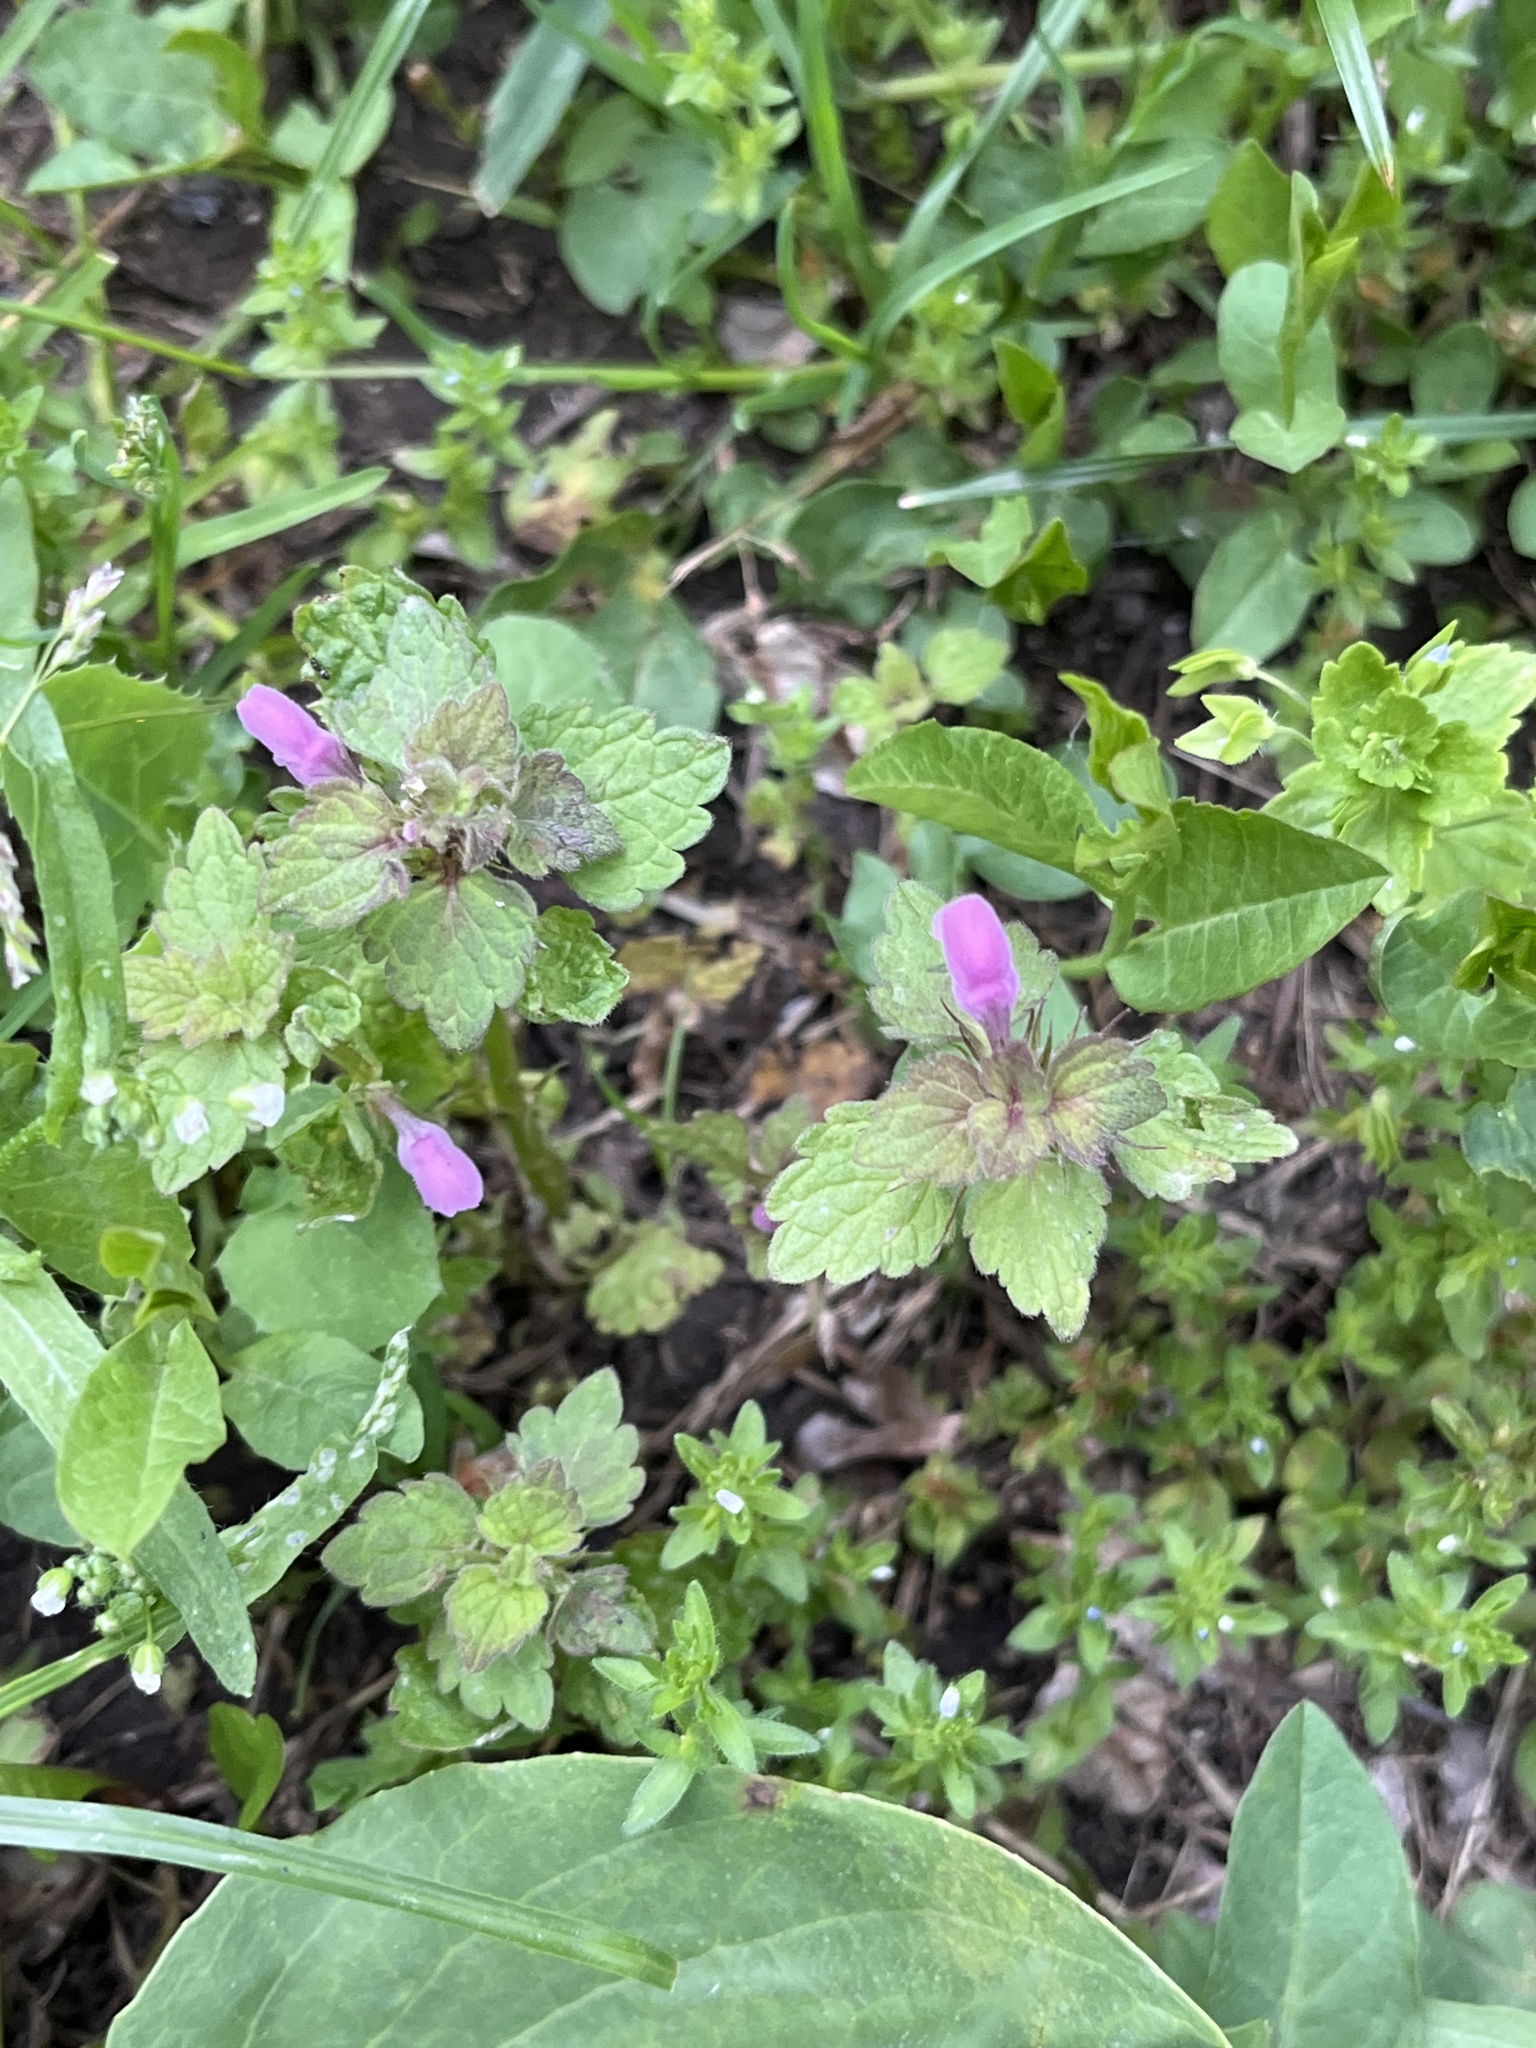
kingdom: Plantae
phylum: Tracheophyta
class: Magnoliopsida
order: Lamiales
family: Lamiaceae
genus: Lamium
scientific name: Lamium purpureum
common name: Red dead-nettle
